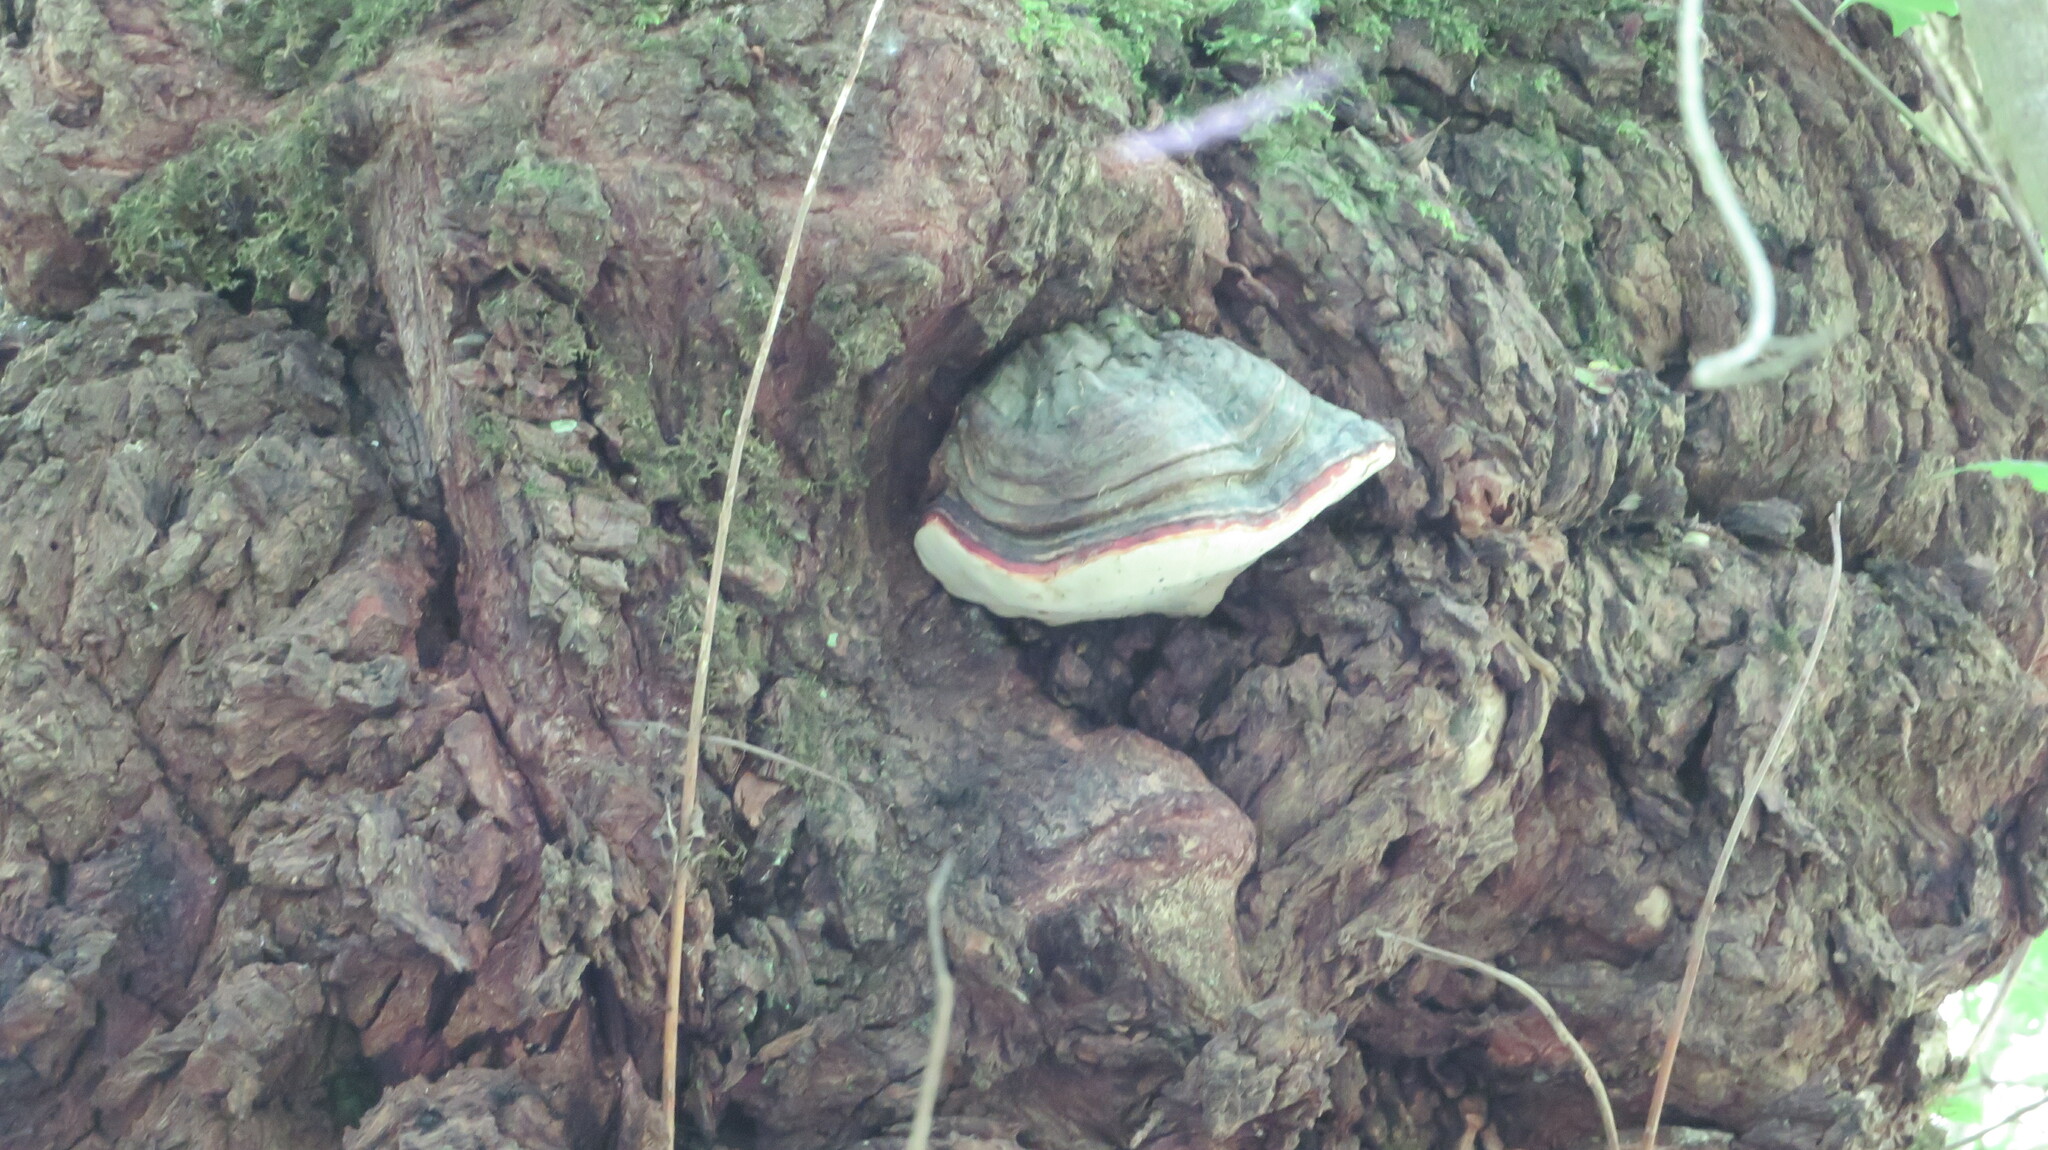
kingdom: Fungi
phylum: Basidiomycota
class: Agaricomycetes
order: Polyporales
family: Fomitopsidaceae
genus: Fomitopsis
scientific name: Fomitopsis pinicola
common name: Red-belted bracket
